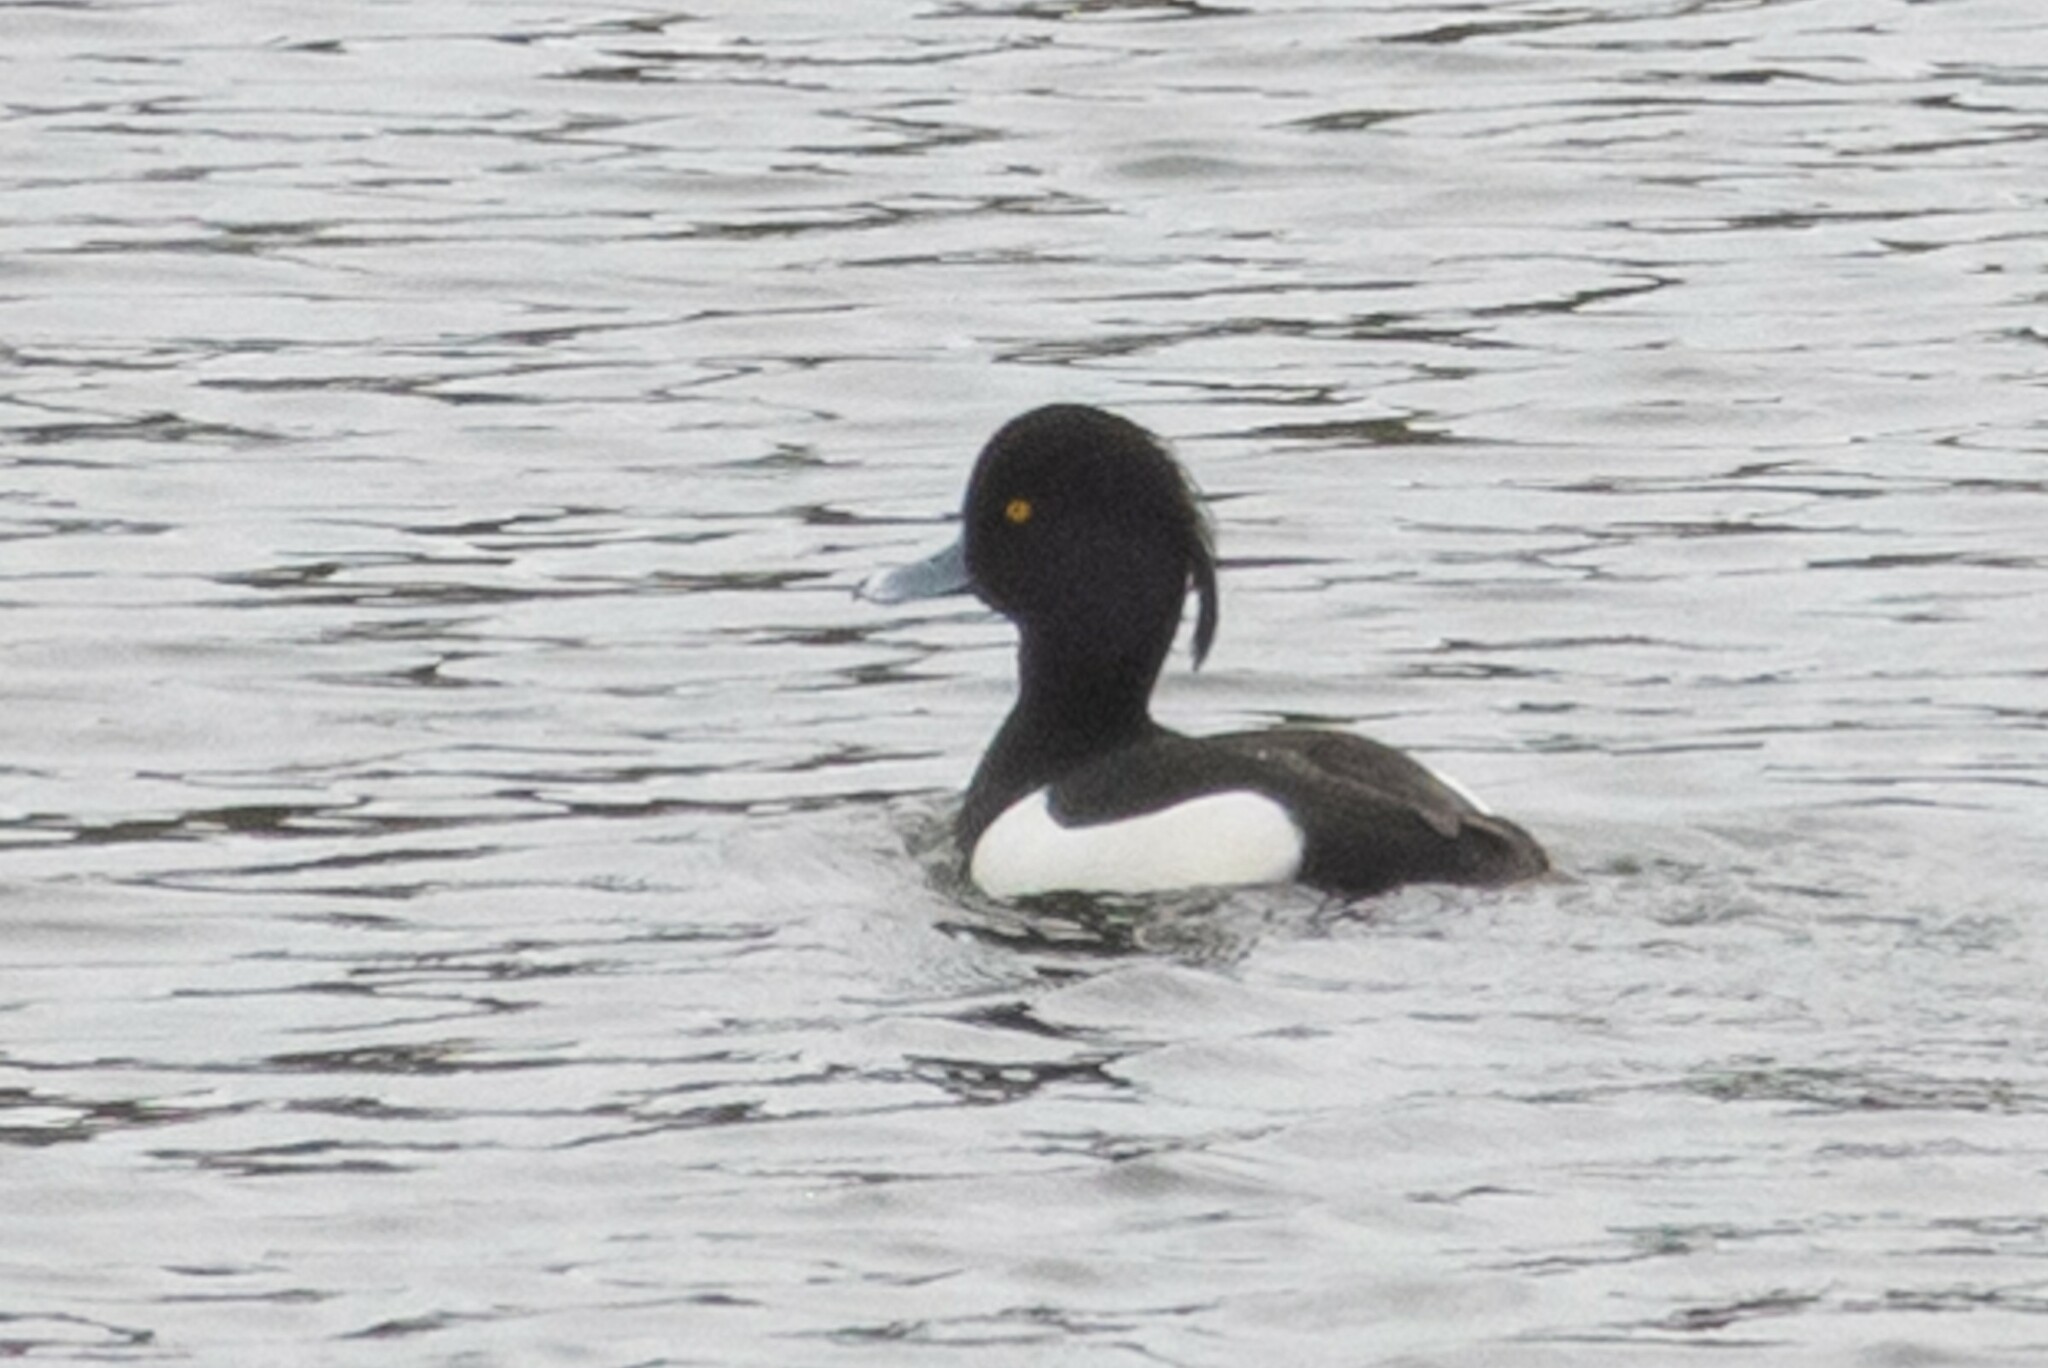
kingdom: Animalia
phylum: Chordata
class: Aves
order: Anseriformes
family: Anatidae
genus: Aythya
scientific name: Aythya fuligula
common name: Tufted duck
